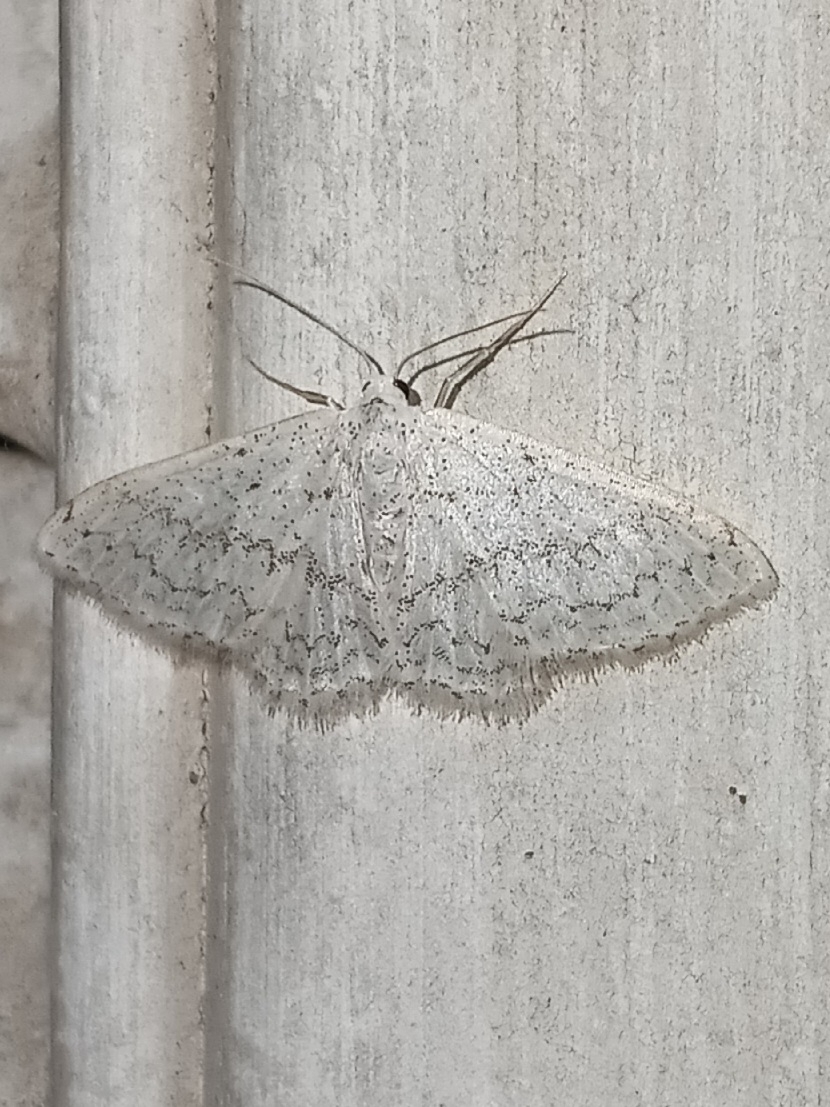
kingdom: Animalia
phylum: Arthropoda
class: Insecta
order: Lepidoptera
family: Geometridae
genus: Idaea
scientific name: Idaea tacturata
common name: Dot-lined wave
